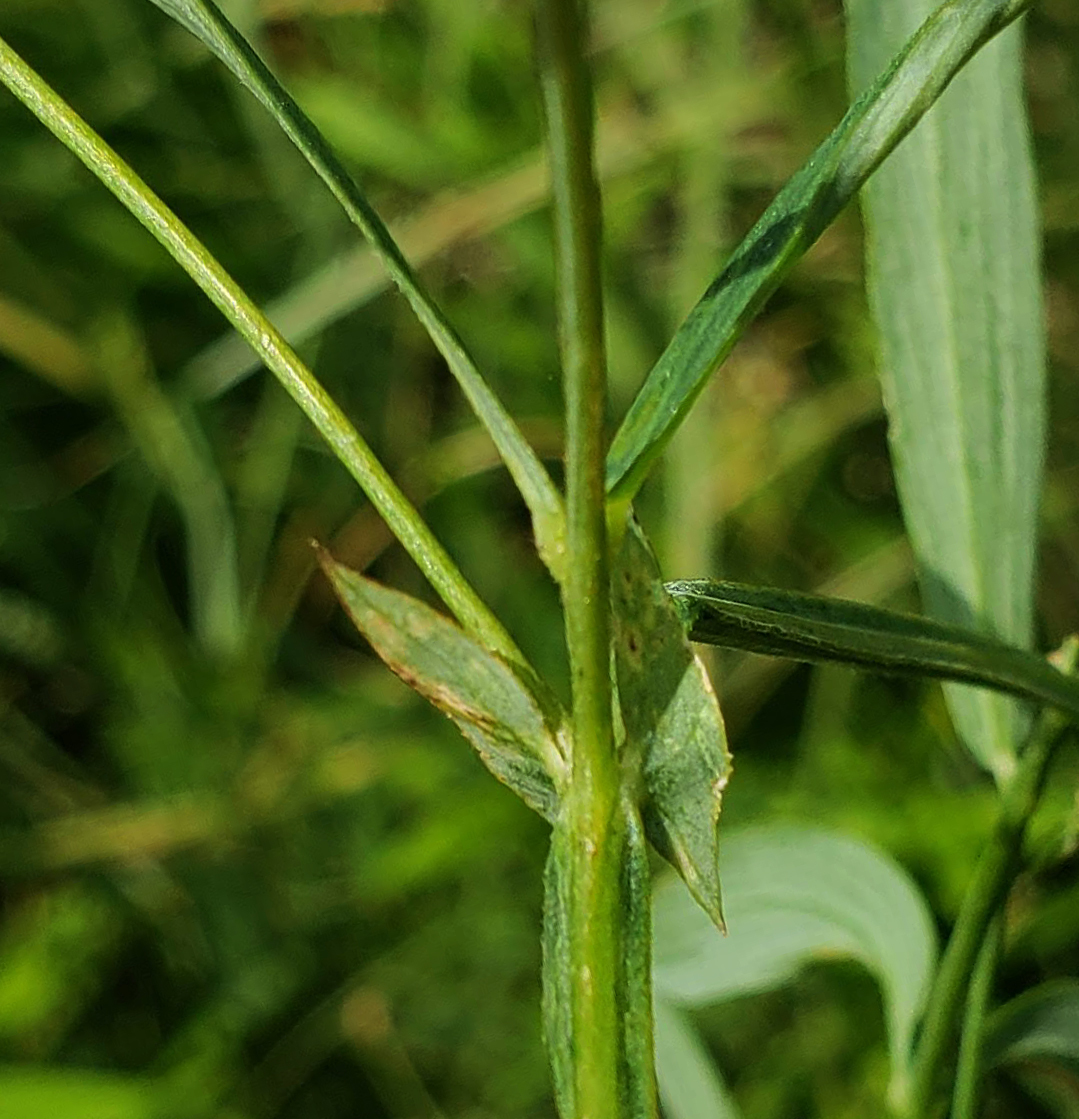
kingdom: Plantae
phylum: Tracheophyta
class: Magnoliopsida
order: Fabales
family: Fabaceae
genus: Lathyrus
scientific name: Lathyrus palustris
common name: Marsh pea
